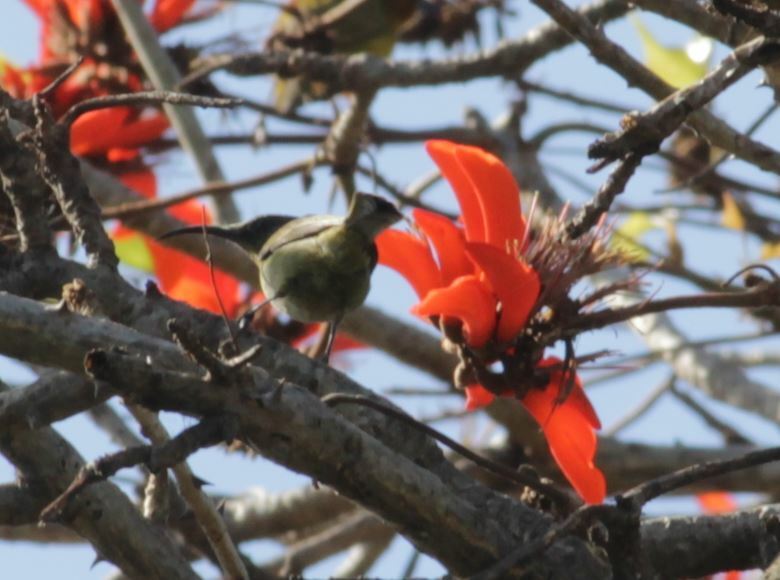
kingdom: Animalia
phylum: Chordata
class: Aves
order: Passeriformes
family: Nectariniidae
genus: Cyanomitra
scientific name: Cyanomitra olivacea
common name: Olive sunbird
